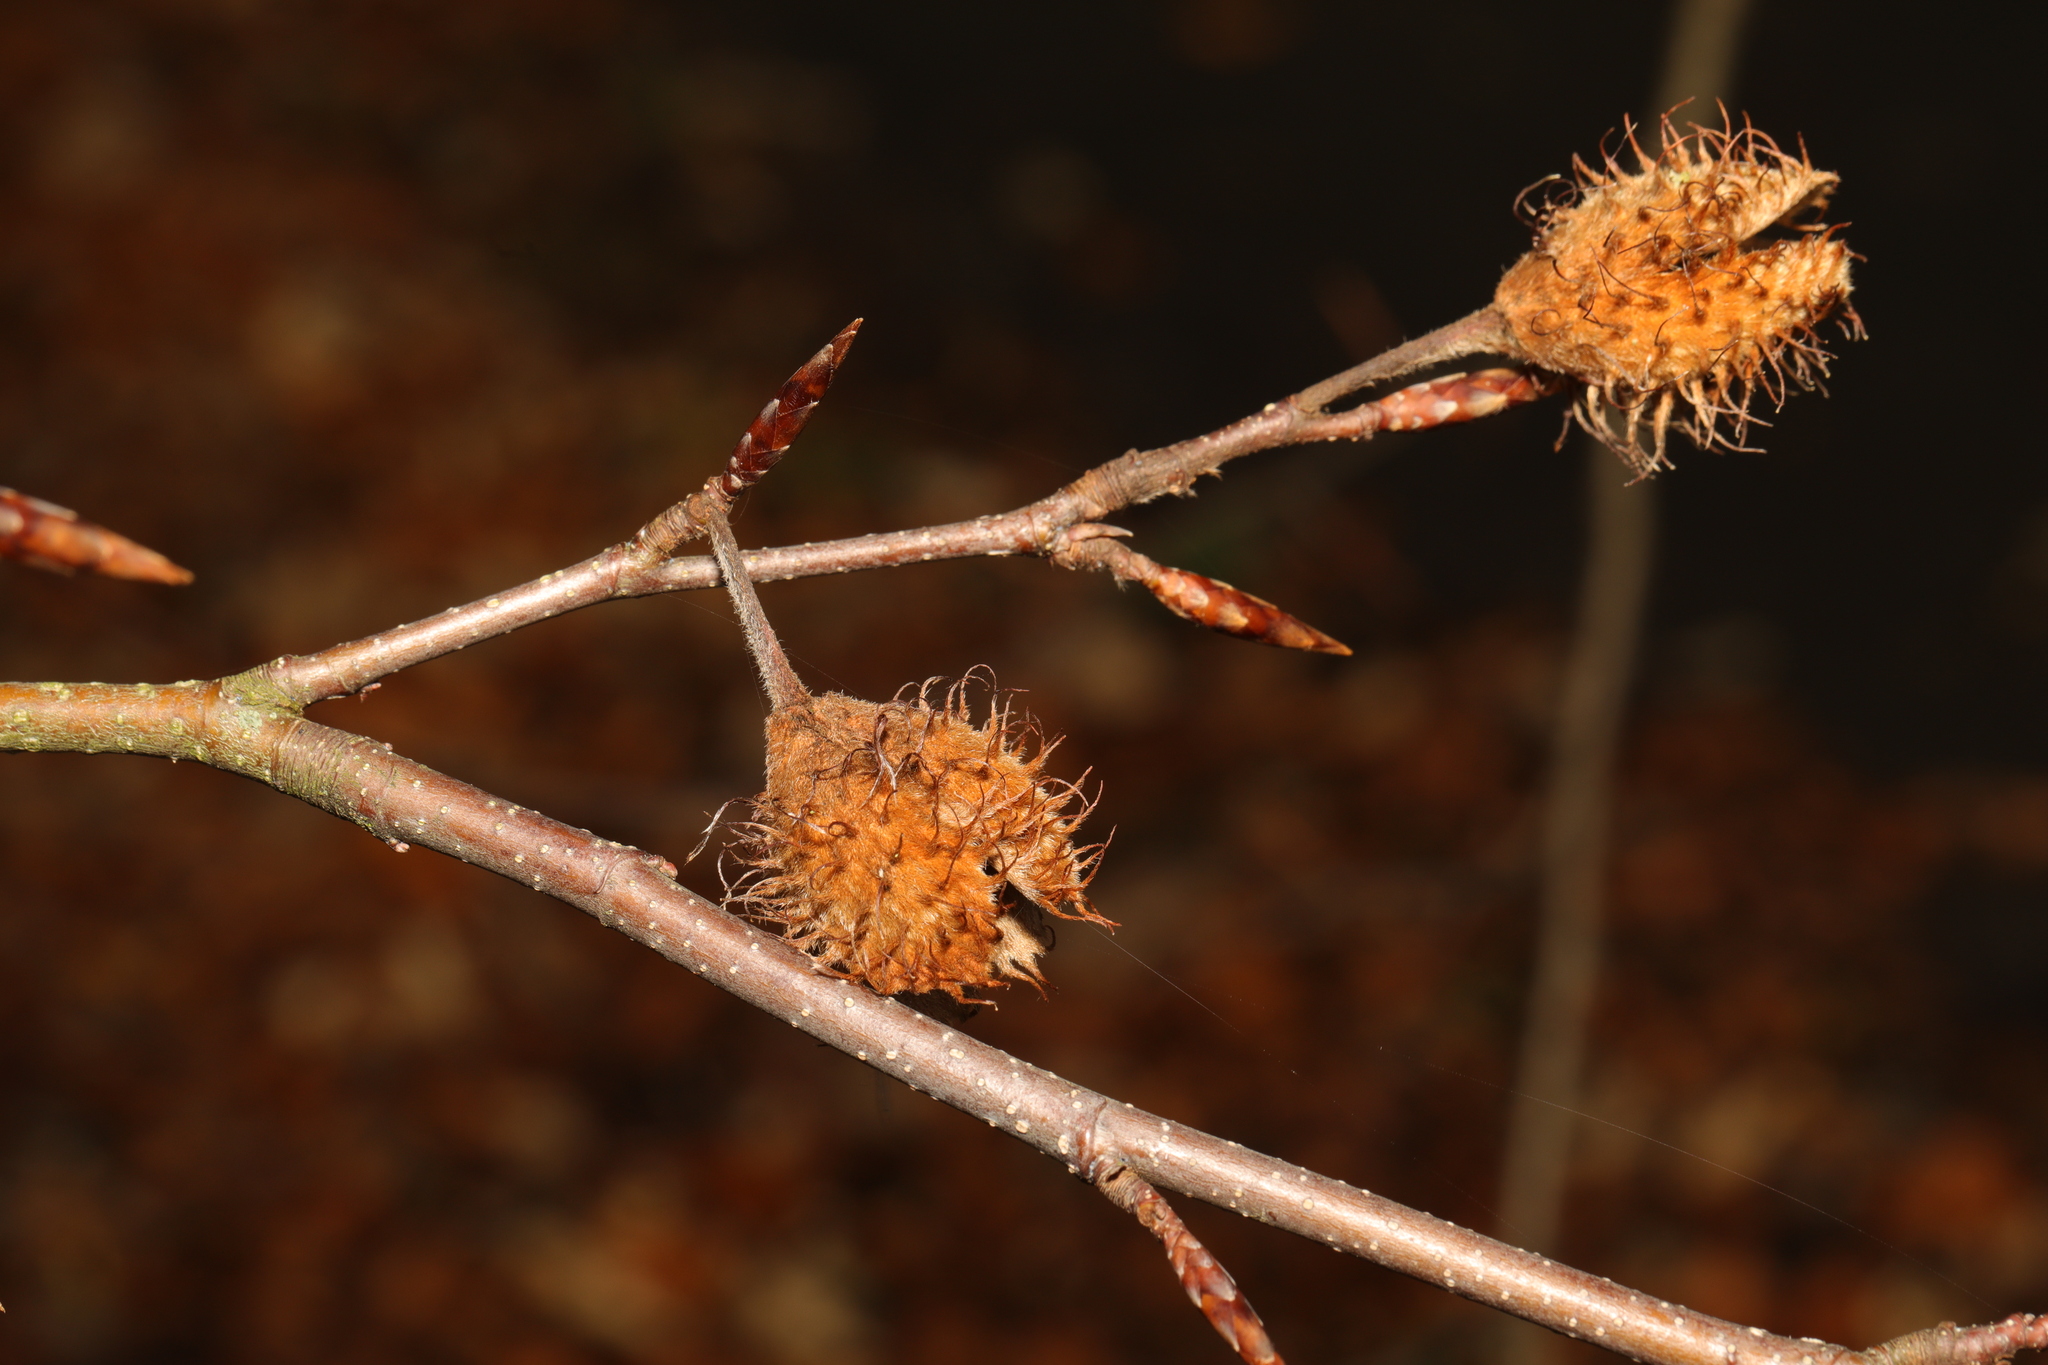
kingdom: Plantae
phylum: Tracheophyta
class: Magnoliopsida
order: Fagales
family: Fagaceae
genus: Fagus
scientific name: Fagus sylvatica
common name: Beech
